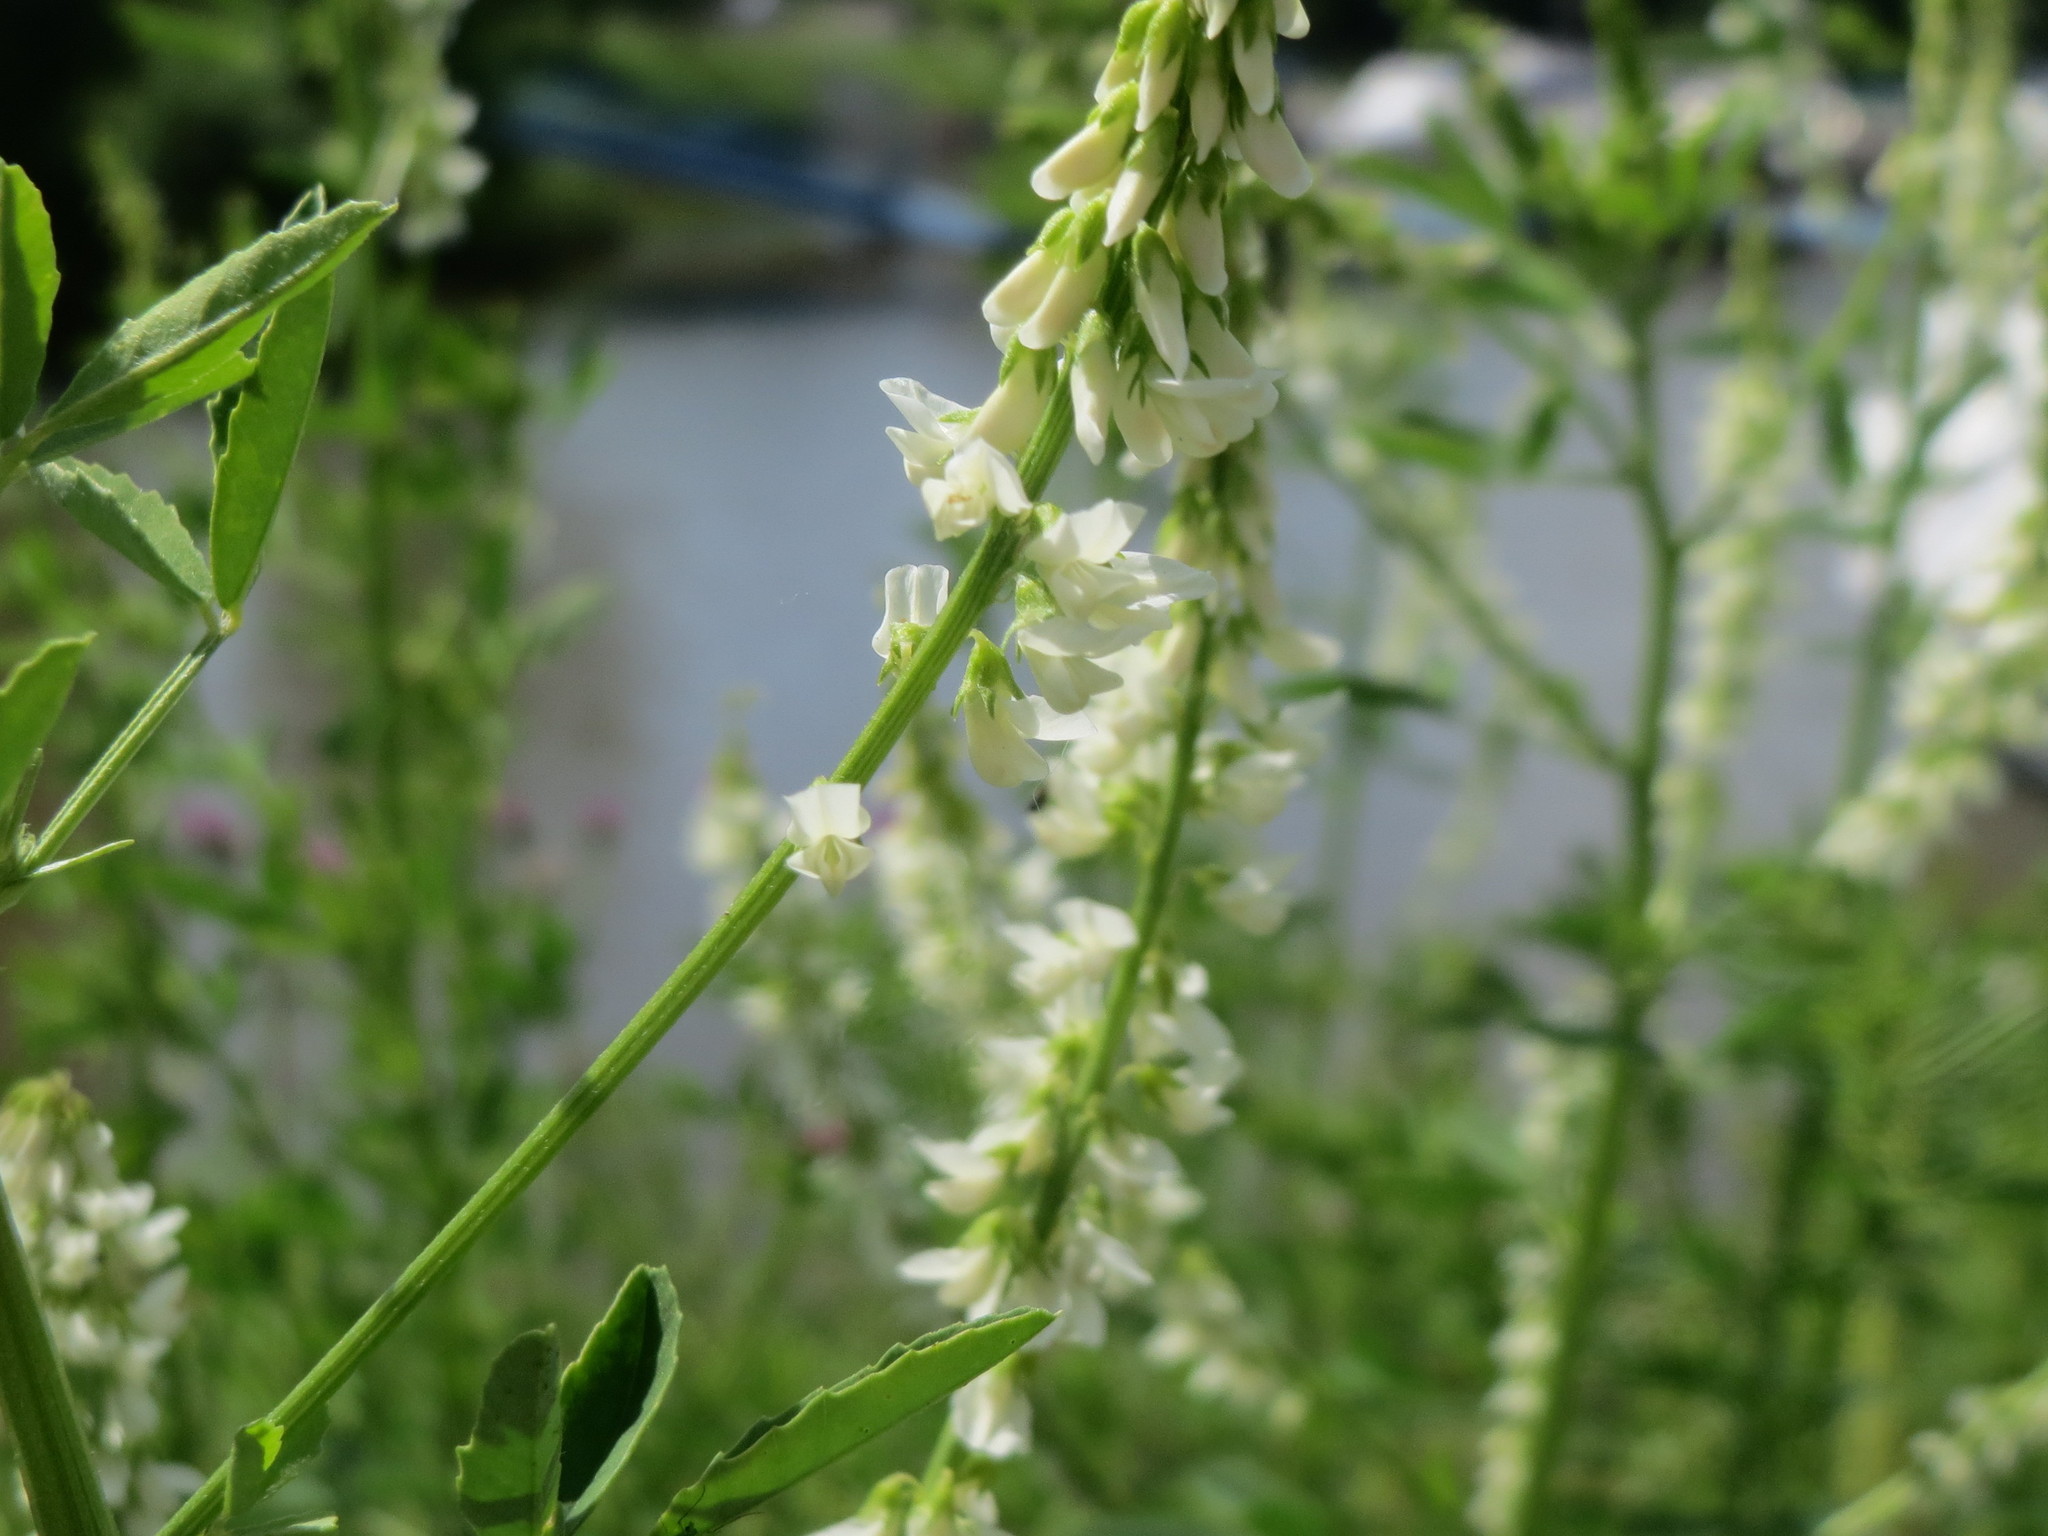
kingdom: Plantae
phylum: Tracheophyta
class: Magnoliopsida
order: Fabales
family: Fabaceae
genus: Melilotus
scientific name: Melilotus albus
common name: White melilot
